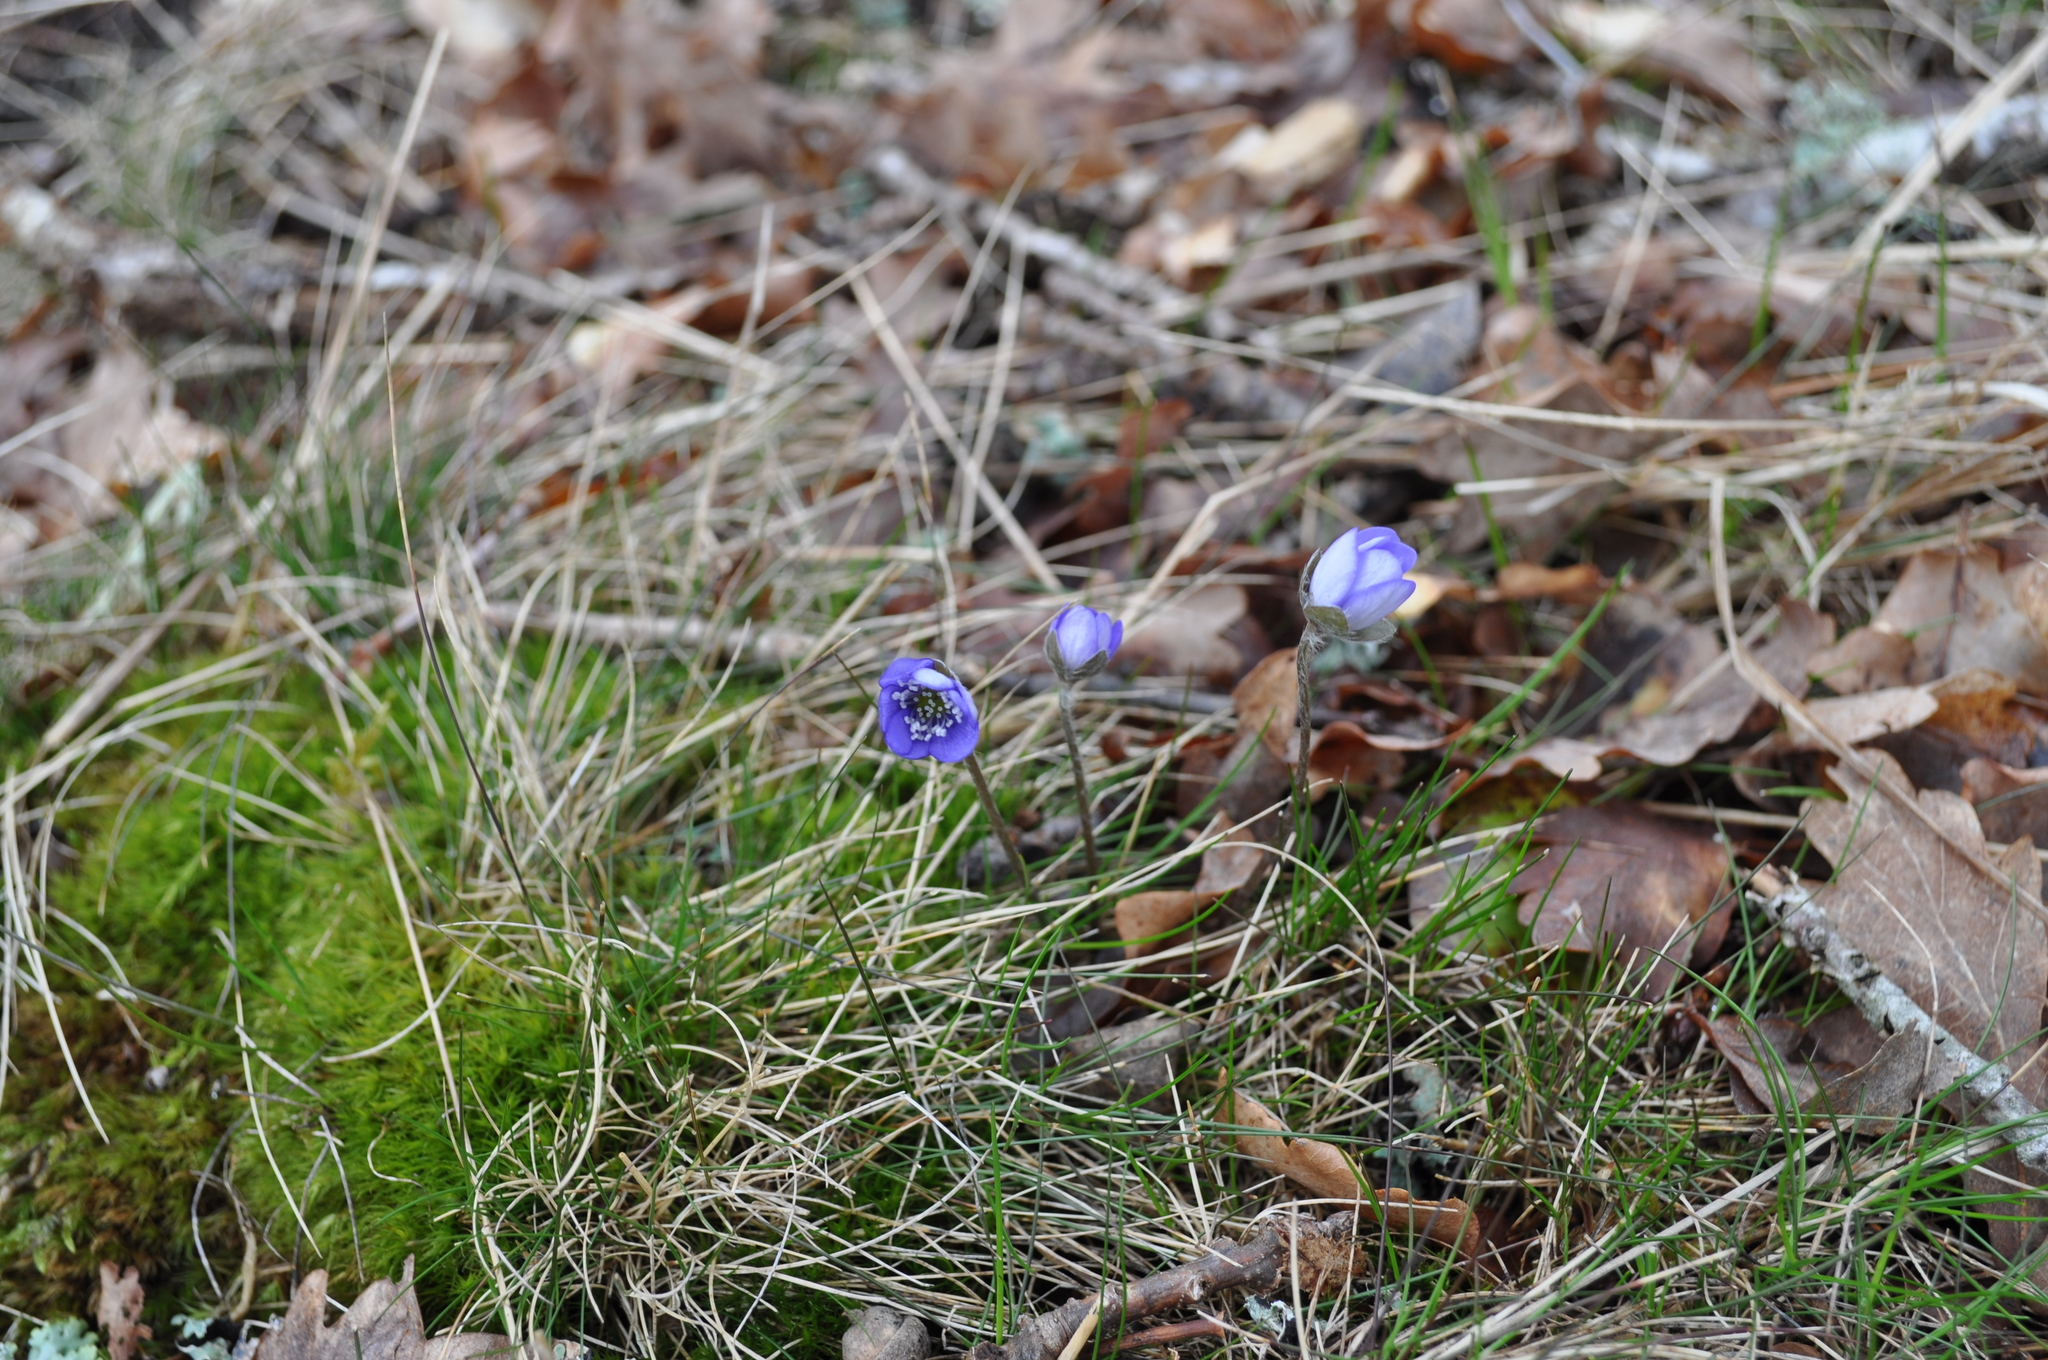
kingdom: Plantae
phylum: Tracheophyta
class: Magnoliopsida
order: Ranunculales
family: Ranunculaceae
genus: Hepatica
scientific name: Hepatica nobilis
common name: Liverleaf
